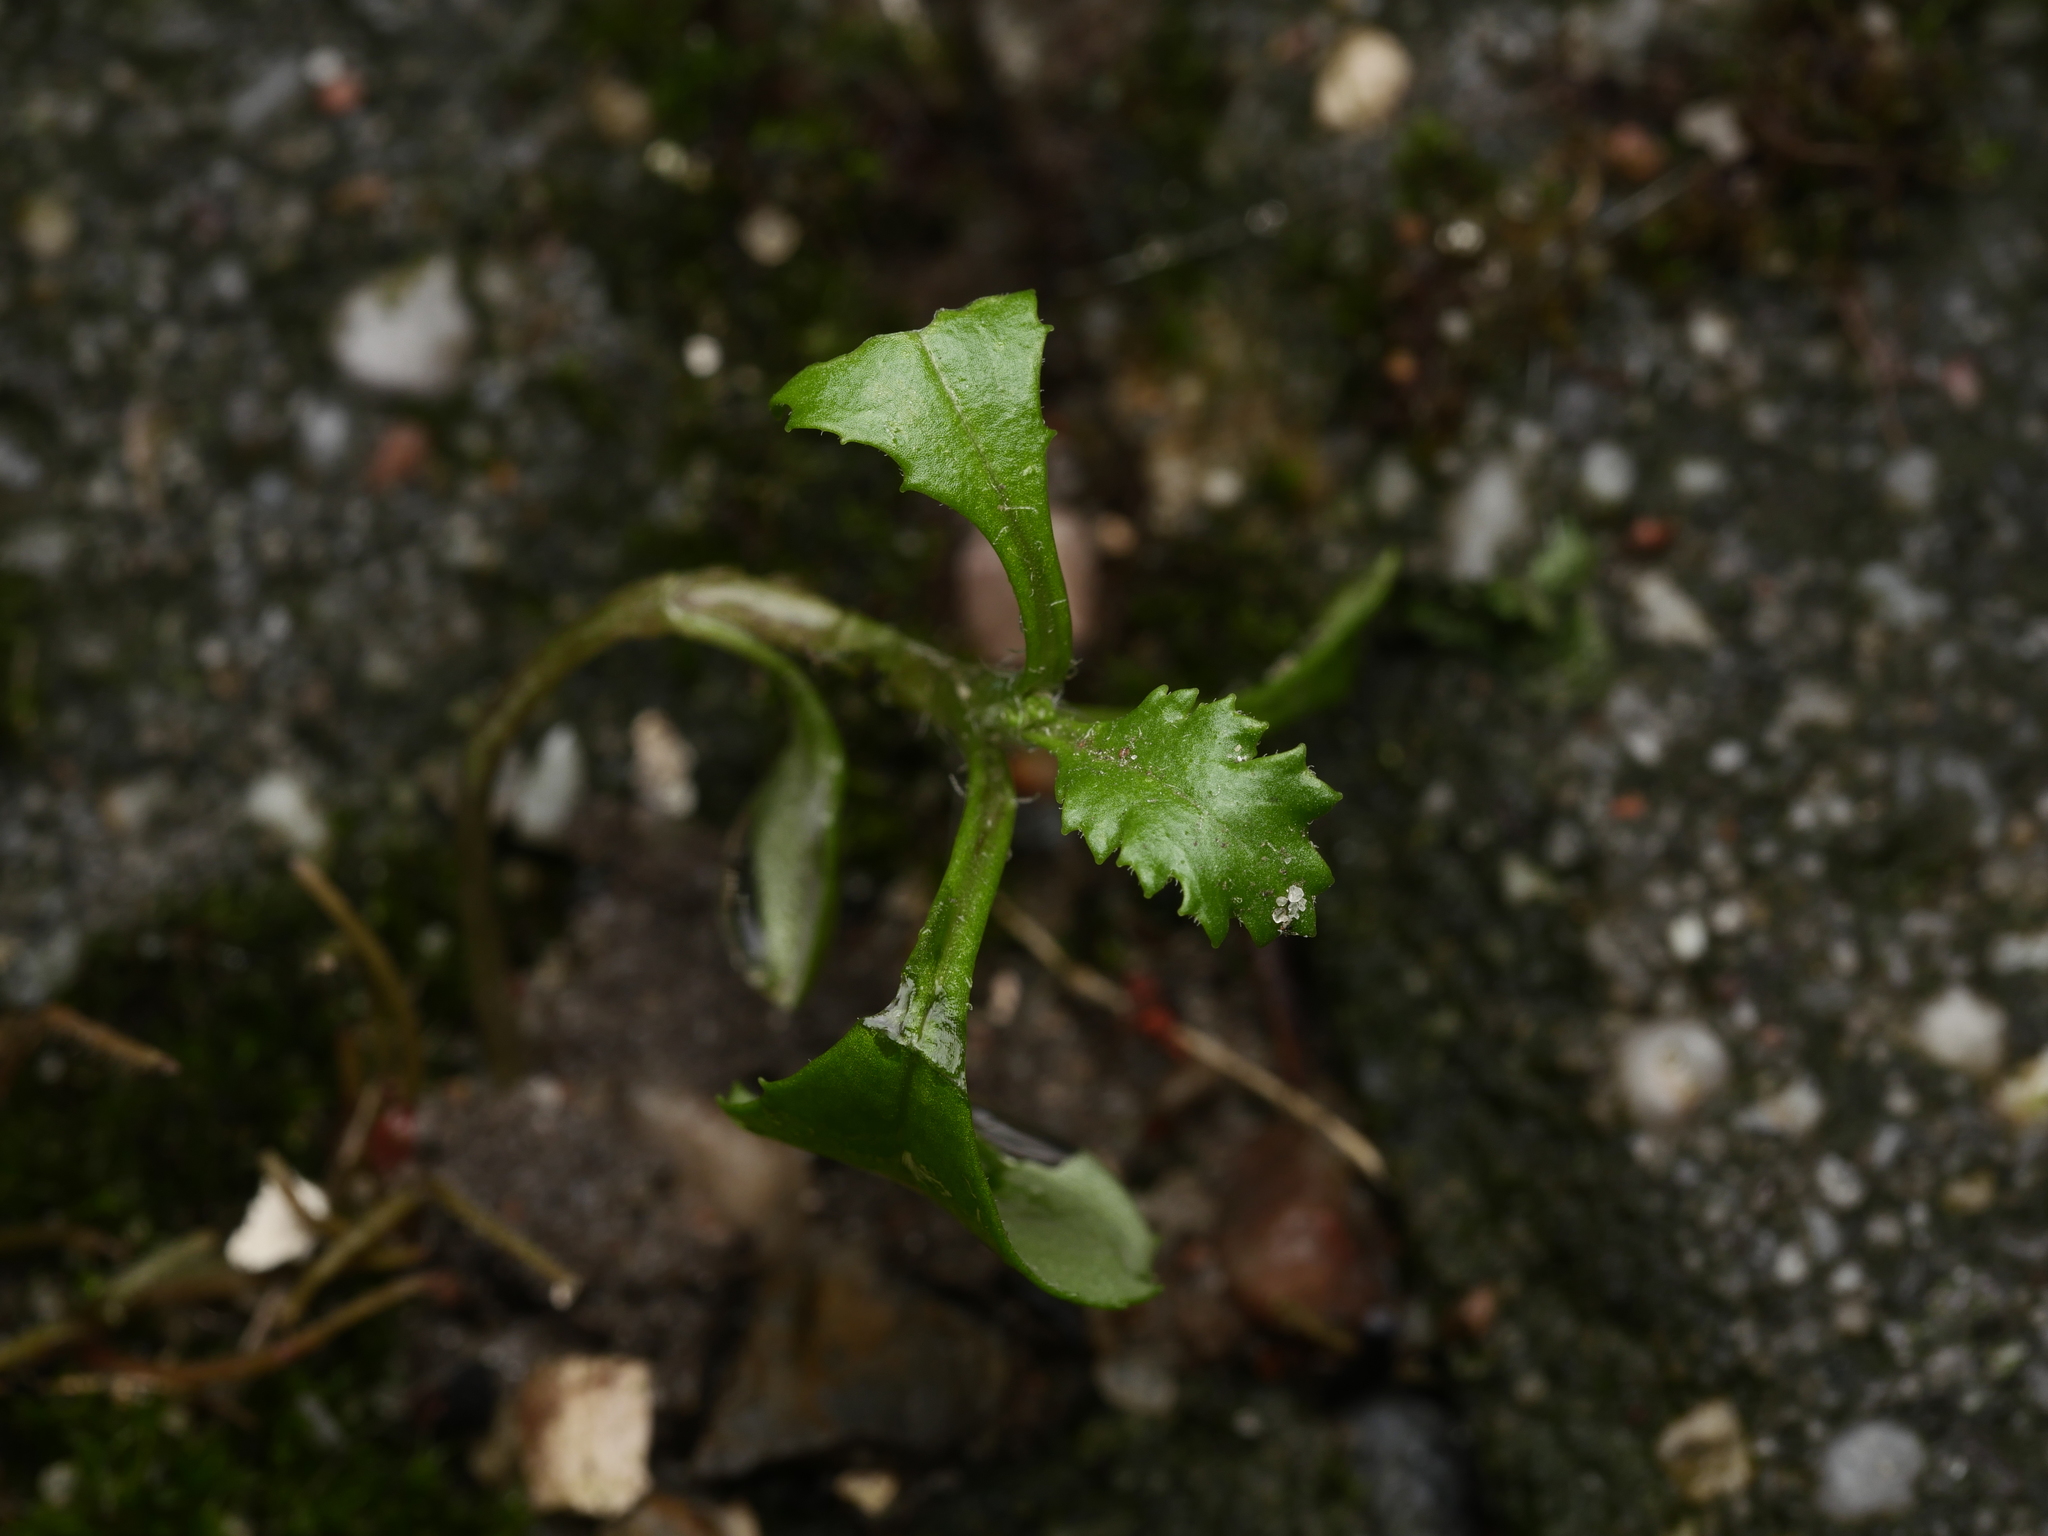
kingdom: Plantae
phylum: Tracheophyta
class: Magnoliopsida
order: Asterales
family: Asteraceae
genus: Senecio
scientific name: Senecio vulgaris
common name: Old-man-in-the-spring
